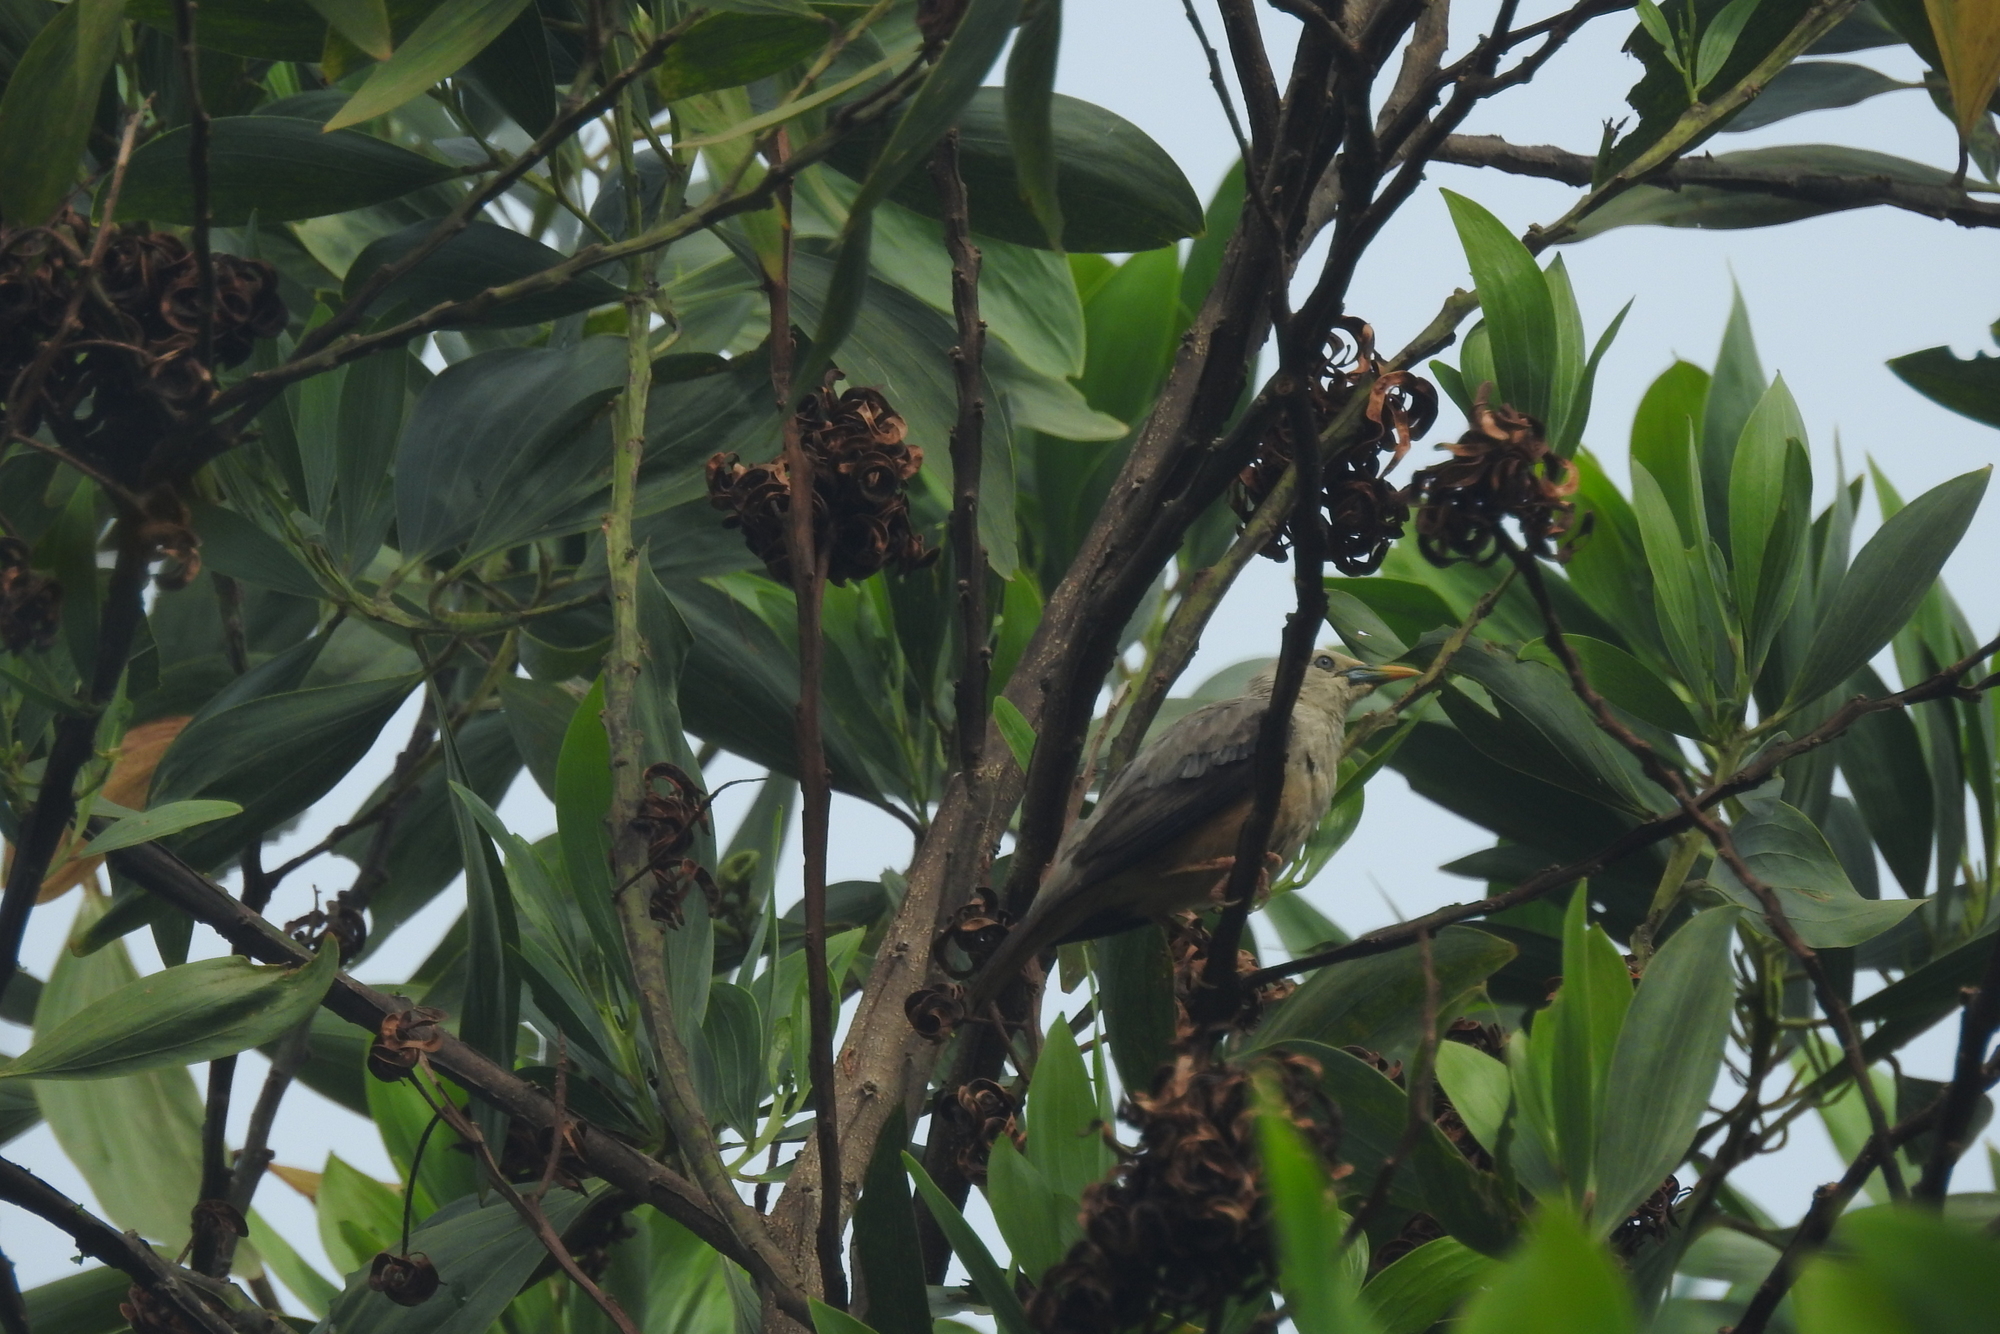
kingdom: Animalia
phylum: Chordata
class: Aves
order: Passeriformes
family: Sturnidae
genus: Sturnia
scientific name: Sturnia malabarica
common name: Chestnut-tailed starling
